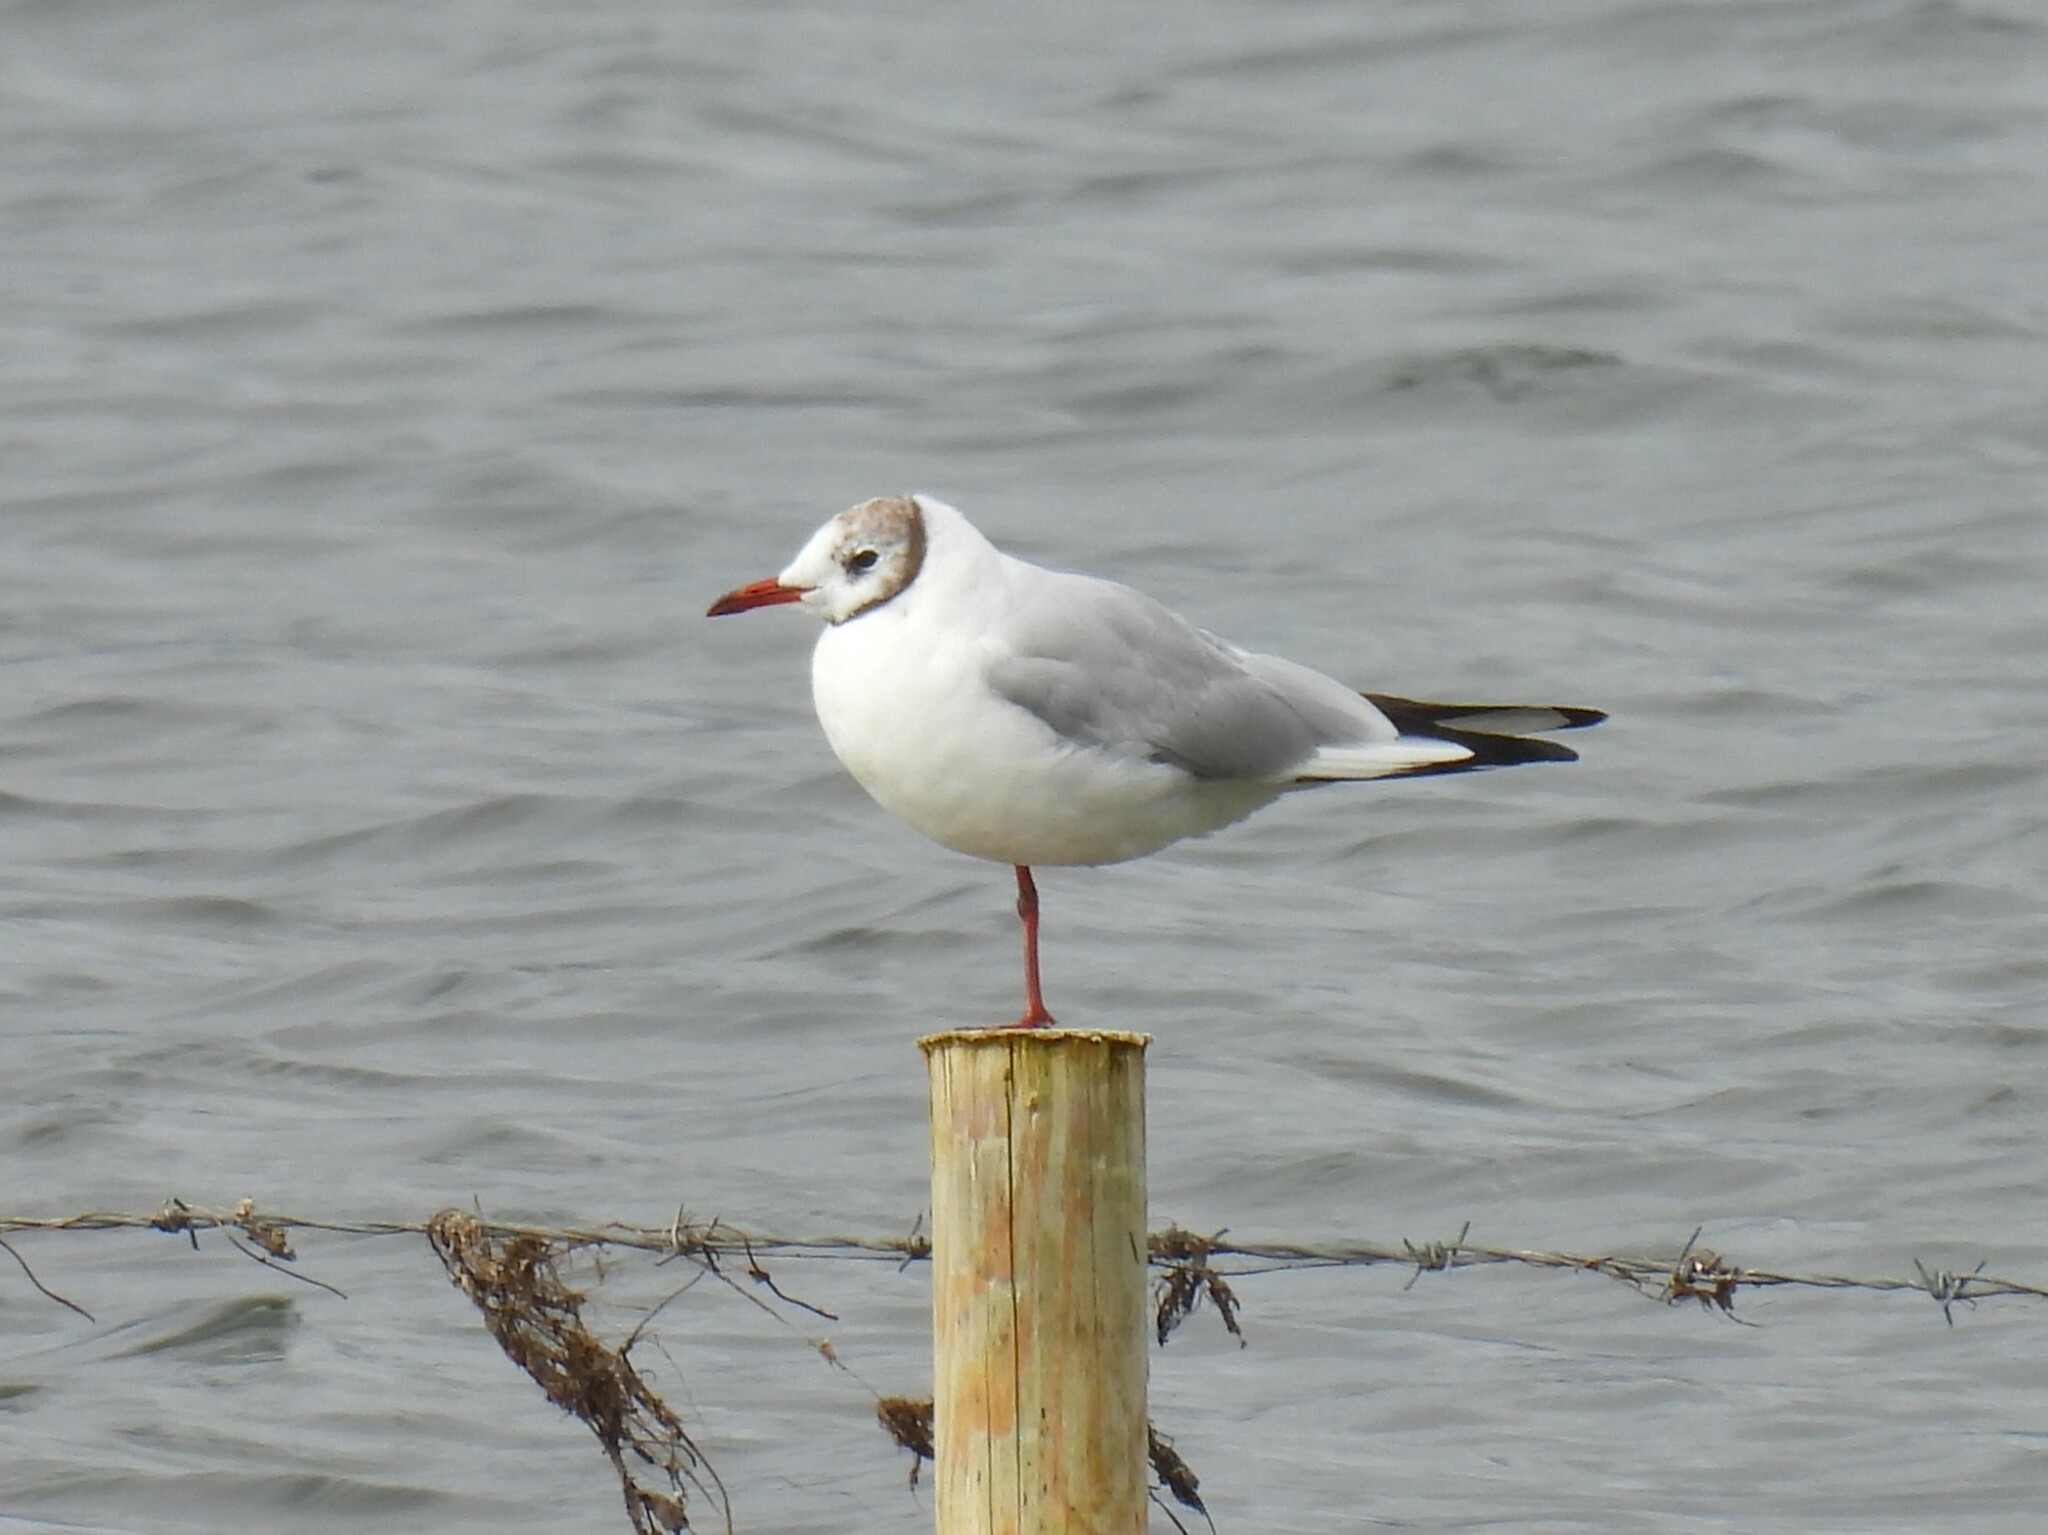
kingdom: Animalia
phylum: Chordata
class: Aves
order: Charadriiformes
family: Laridae
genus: Chroicocephalus
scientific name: Chroicocephalus ridibundus
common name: Black-headed gull
